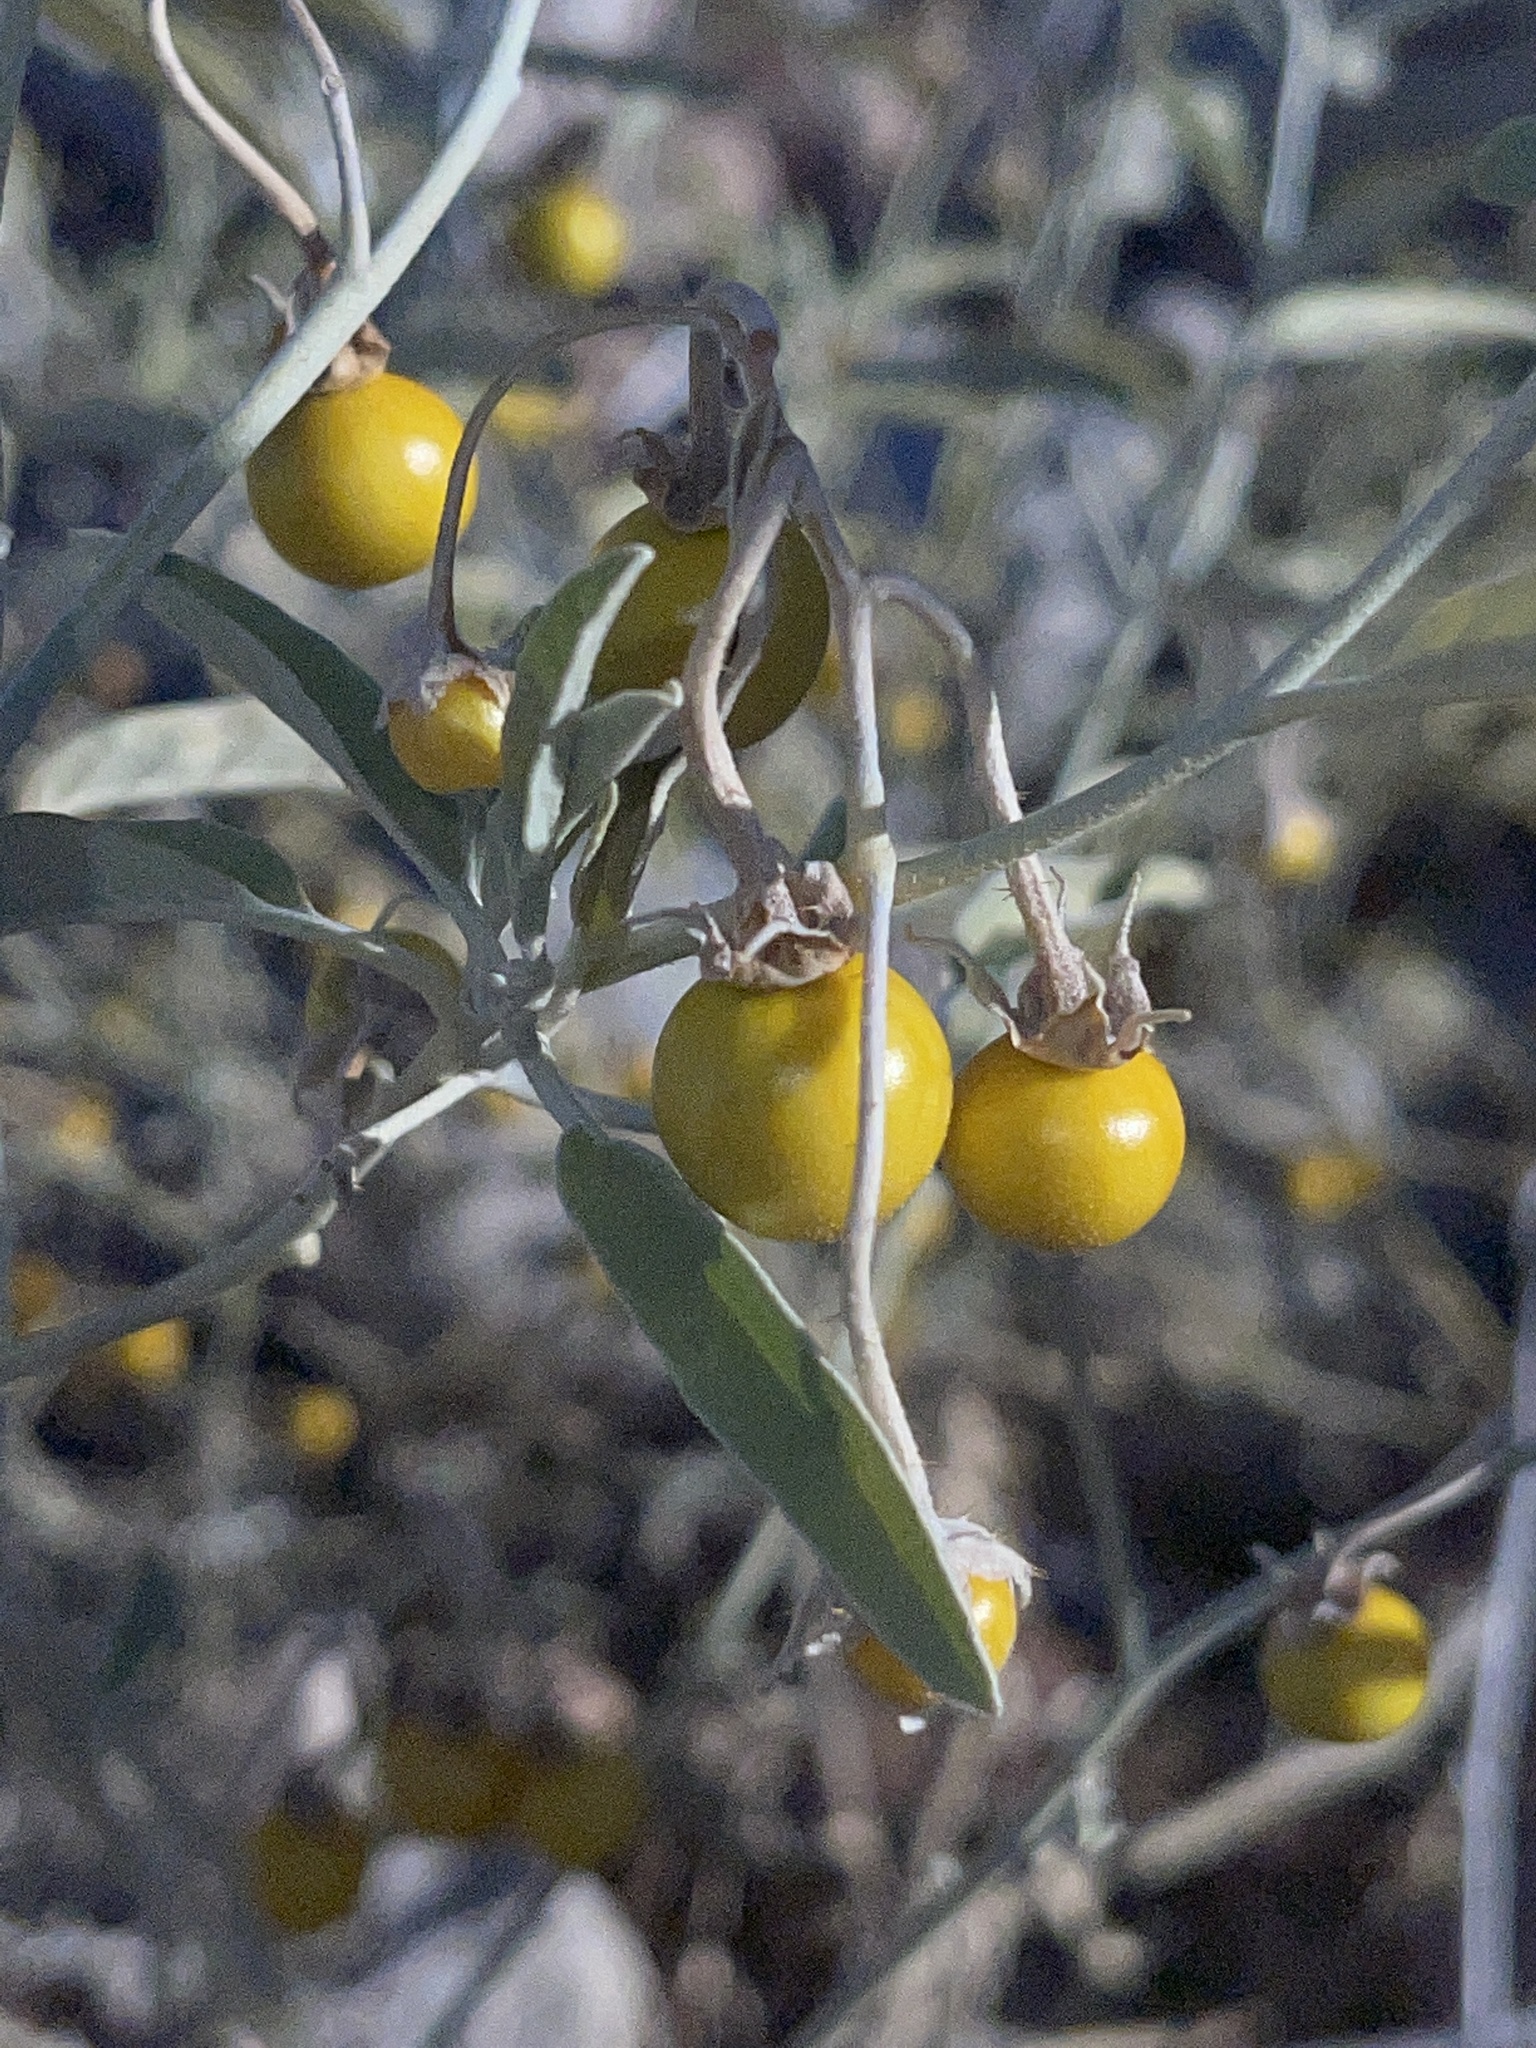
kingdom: Plantae
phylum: Tracheophyta
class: Magnoliopsida
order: Solanales
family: Solanaceae
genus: Solanum
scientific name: Solanum elaeagnifolium
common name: Silverleaf nightshade
